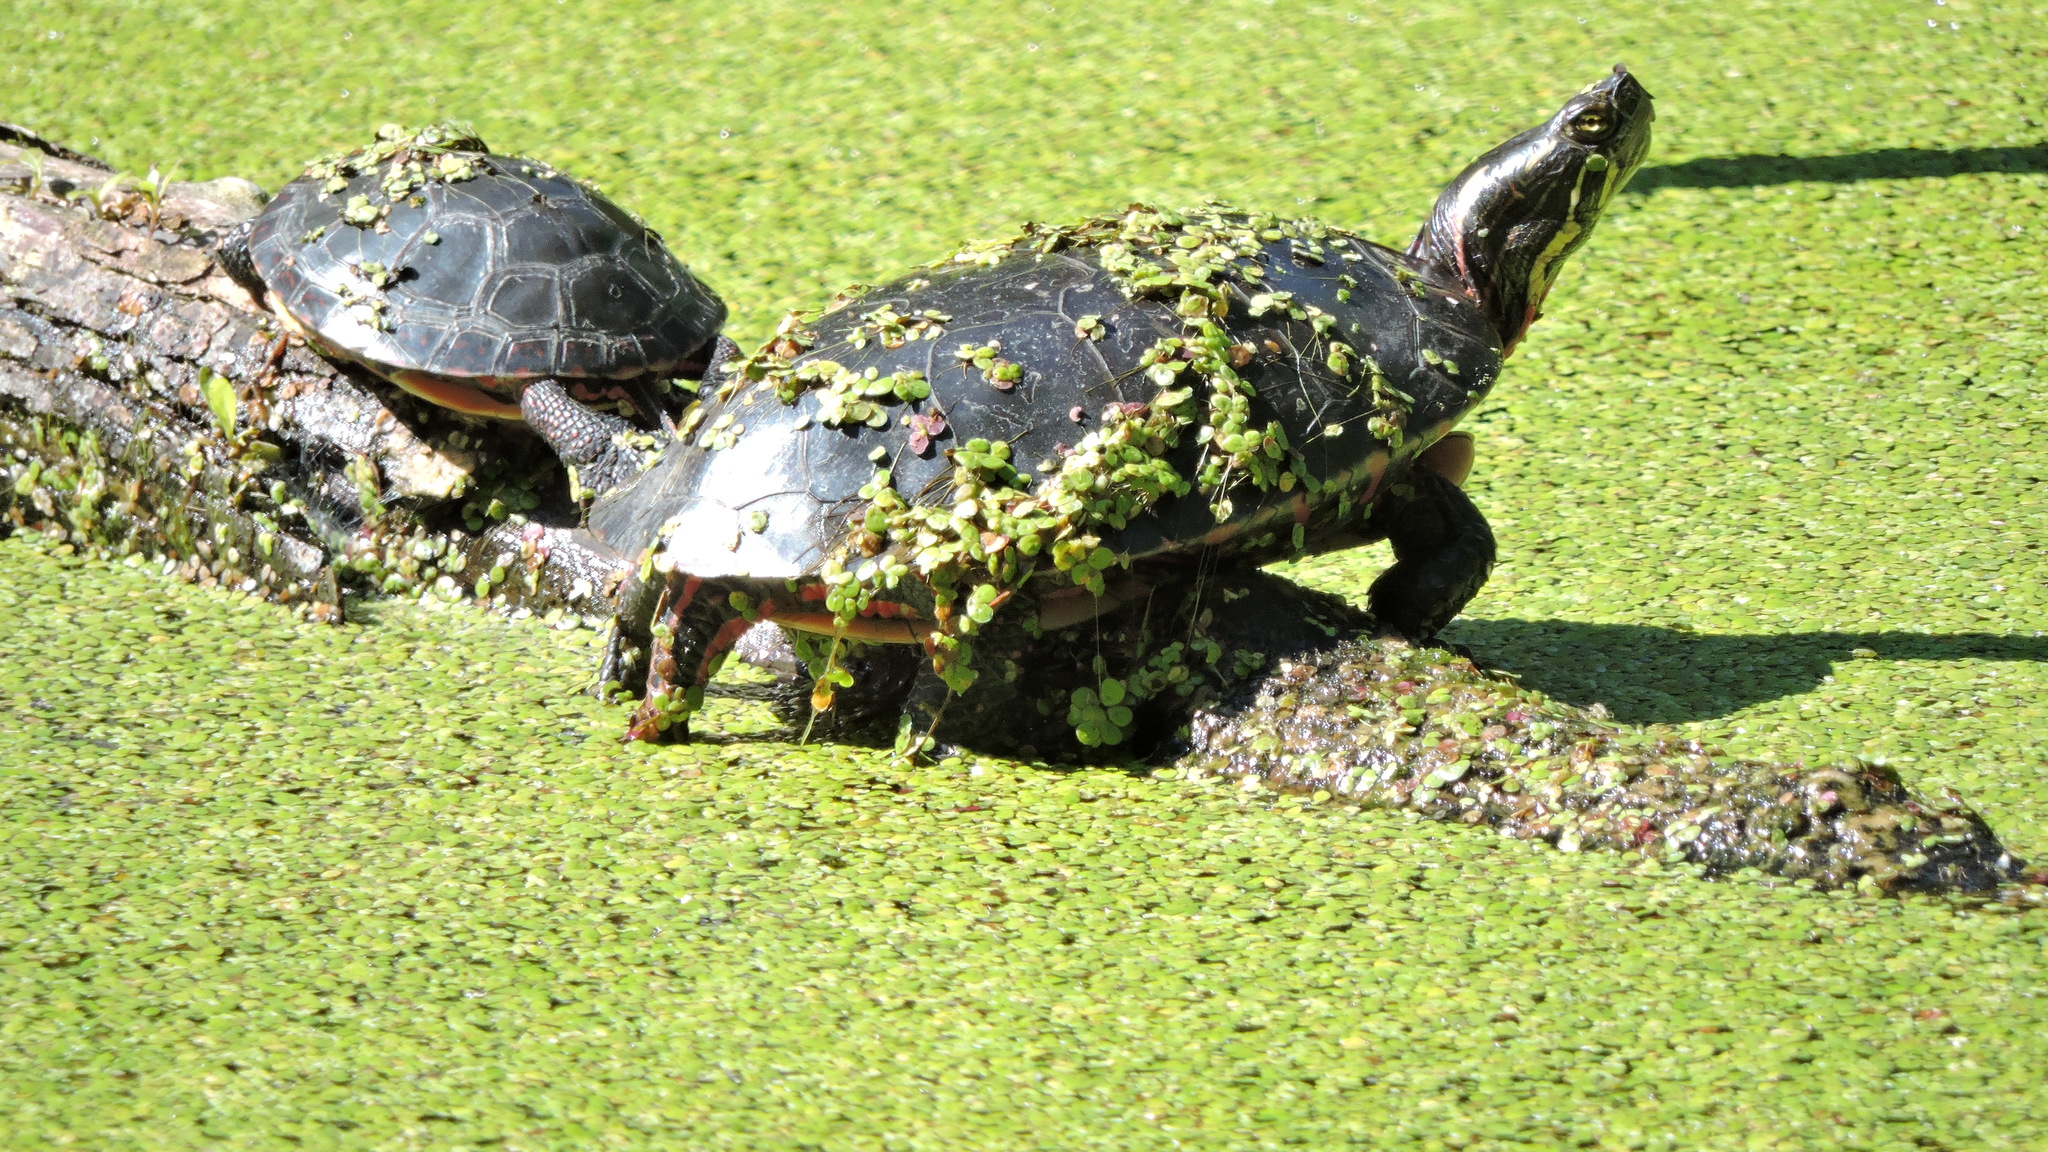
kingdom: Animalia
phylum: Chordata
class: Testudines
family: Emydidae
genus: Chrysemys
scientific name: Chrysemys picta
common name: Painted turtle
